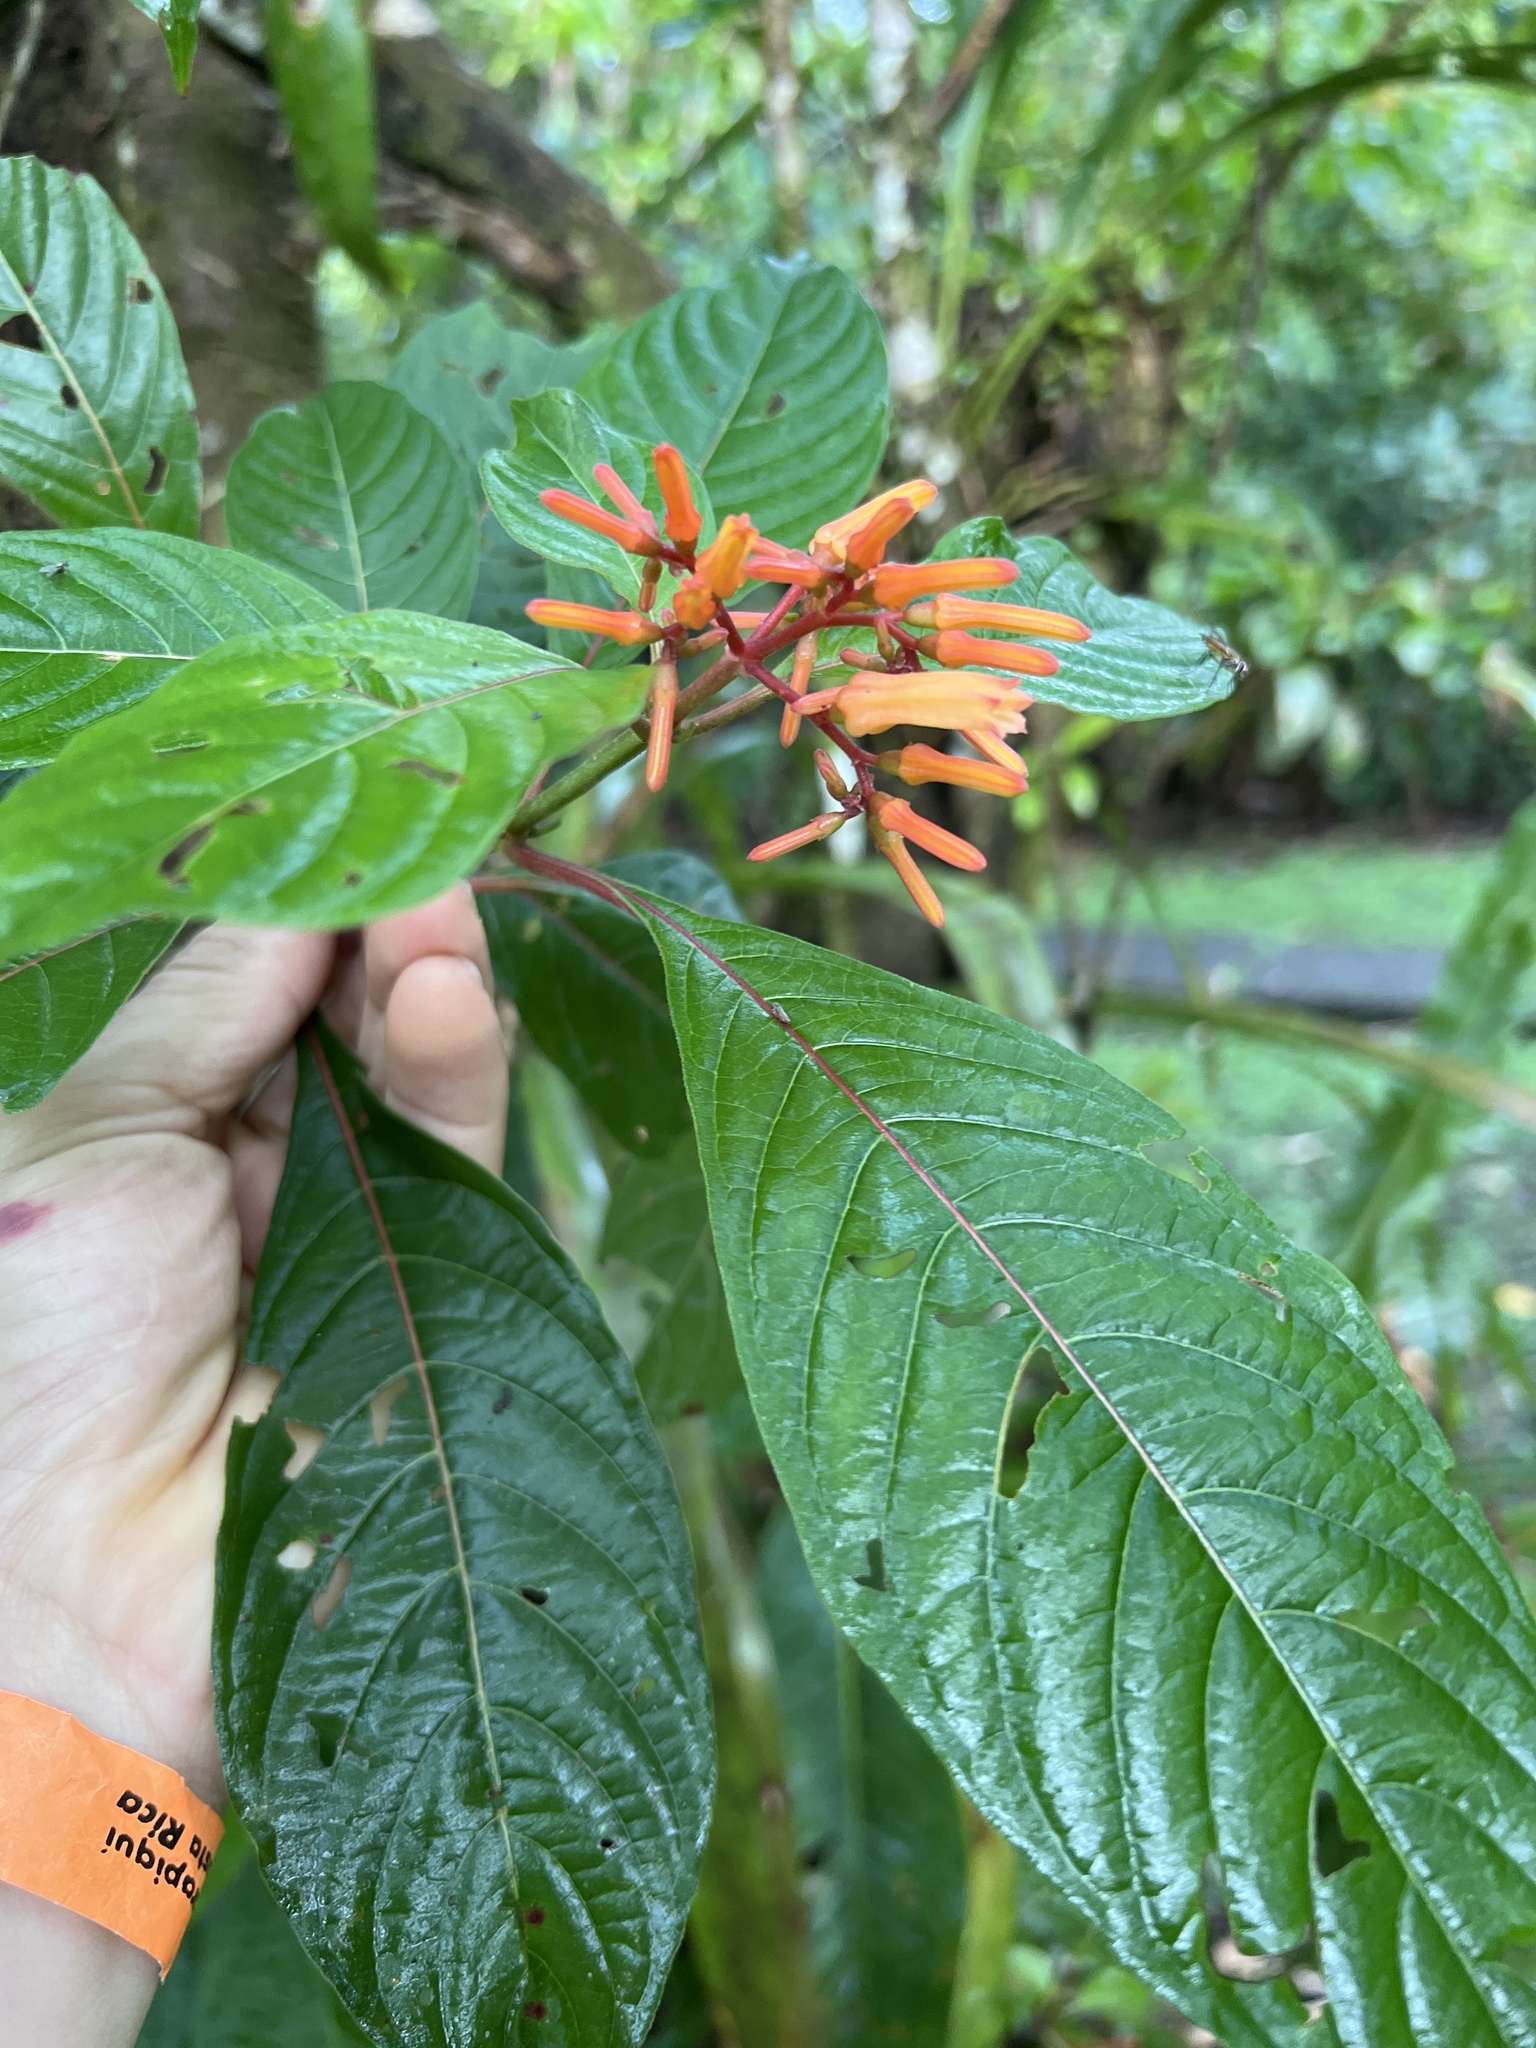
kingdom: Plantae
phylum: Tracheophyta
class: Magnoliopsida
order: Gentianales
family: Rubiaceae
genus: Hamelia
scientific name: Hamelia patens
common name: Redhead
